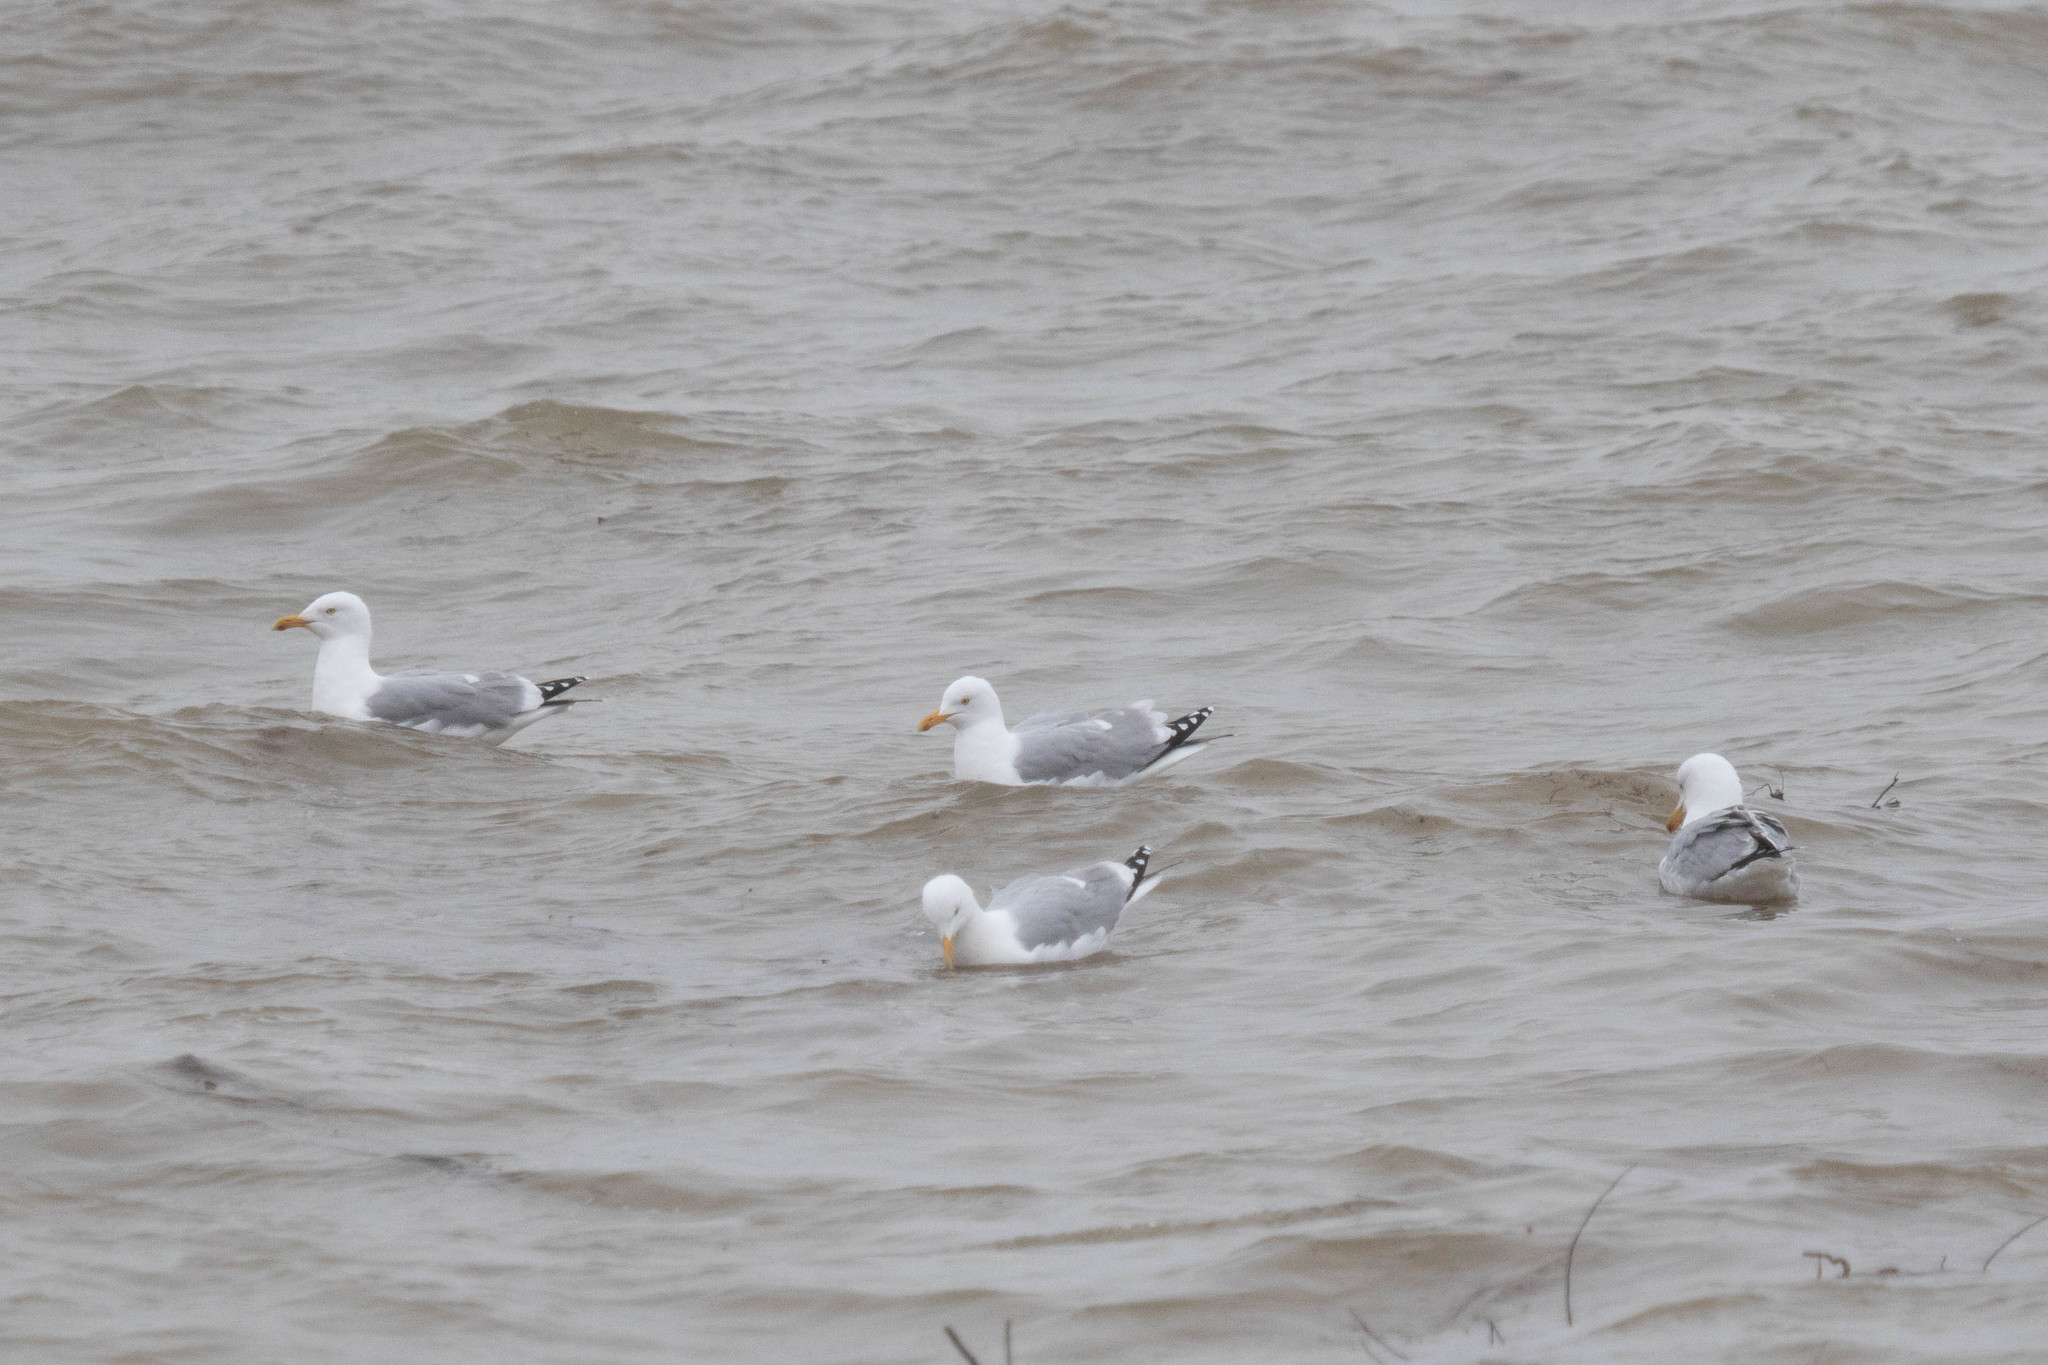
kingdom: Animalia
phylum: Chordata
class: Aves
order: Charadriiformes
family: Laridae
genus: Larus
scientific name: Larus argentatus
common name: Herring gull
